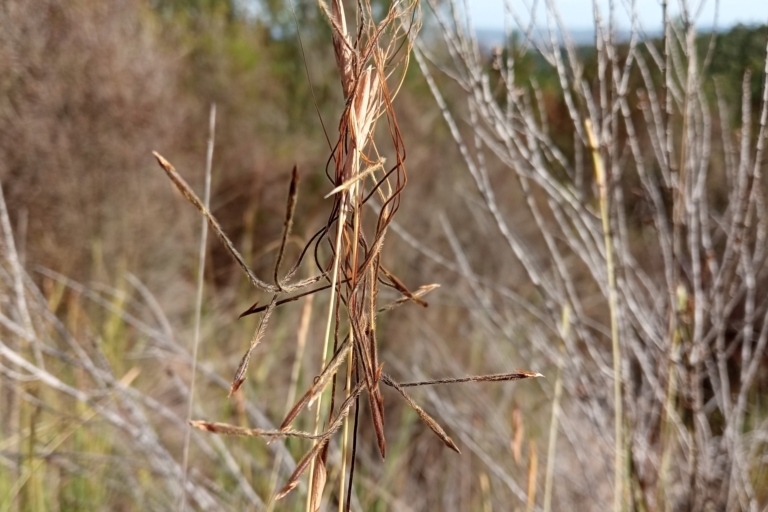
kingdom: Plantae
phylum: Tracheophyta
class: Liliopsida
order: Poales
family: Poaceae
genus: Heteropogon
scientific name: Heteropogon contortus
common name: Tanglehead
